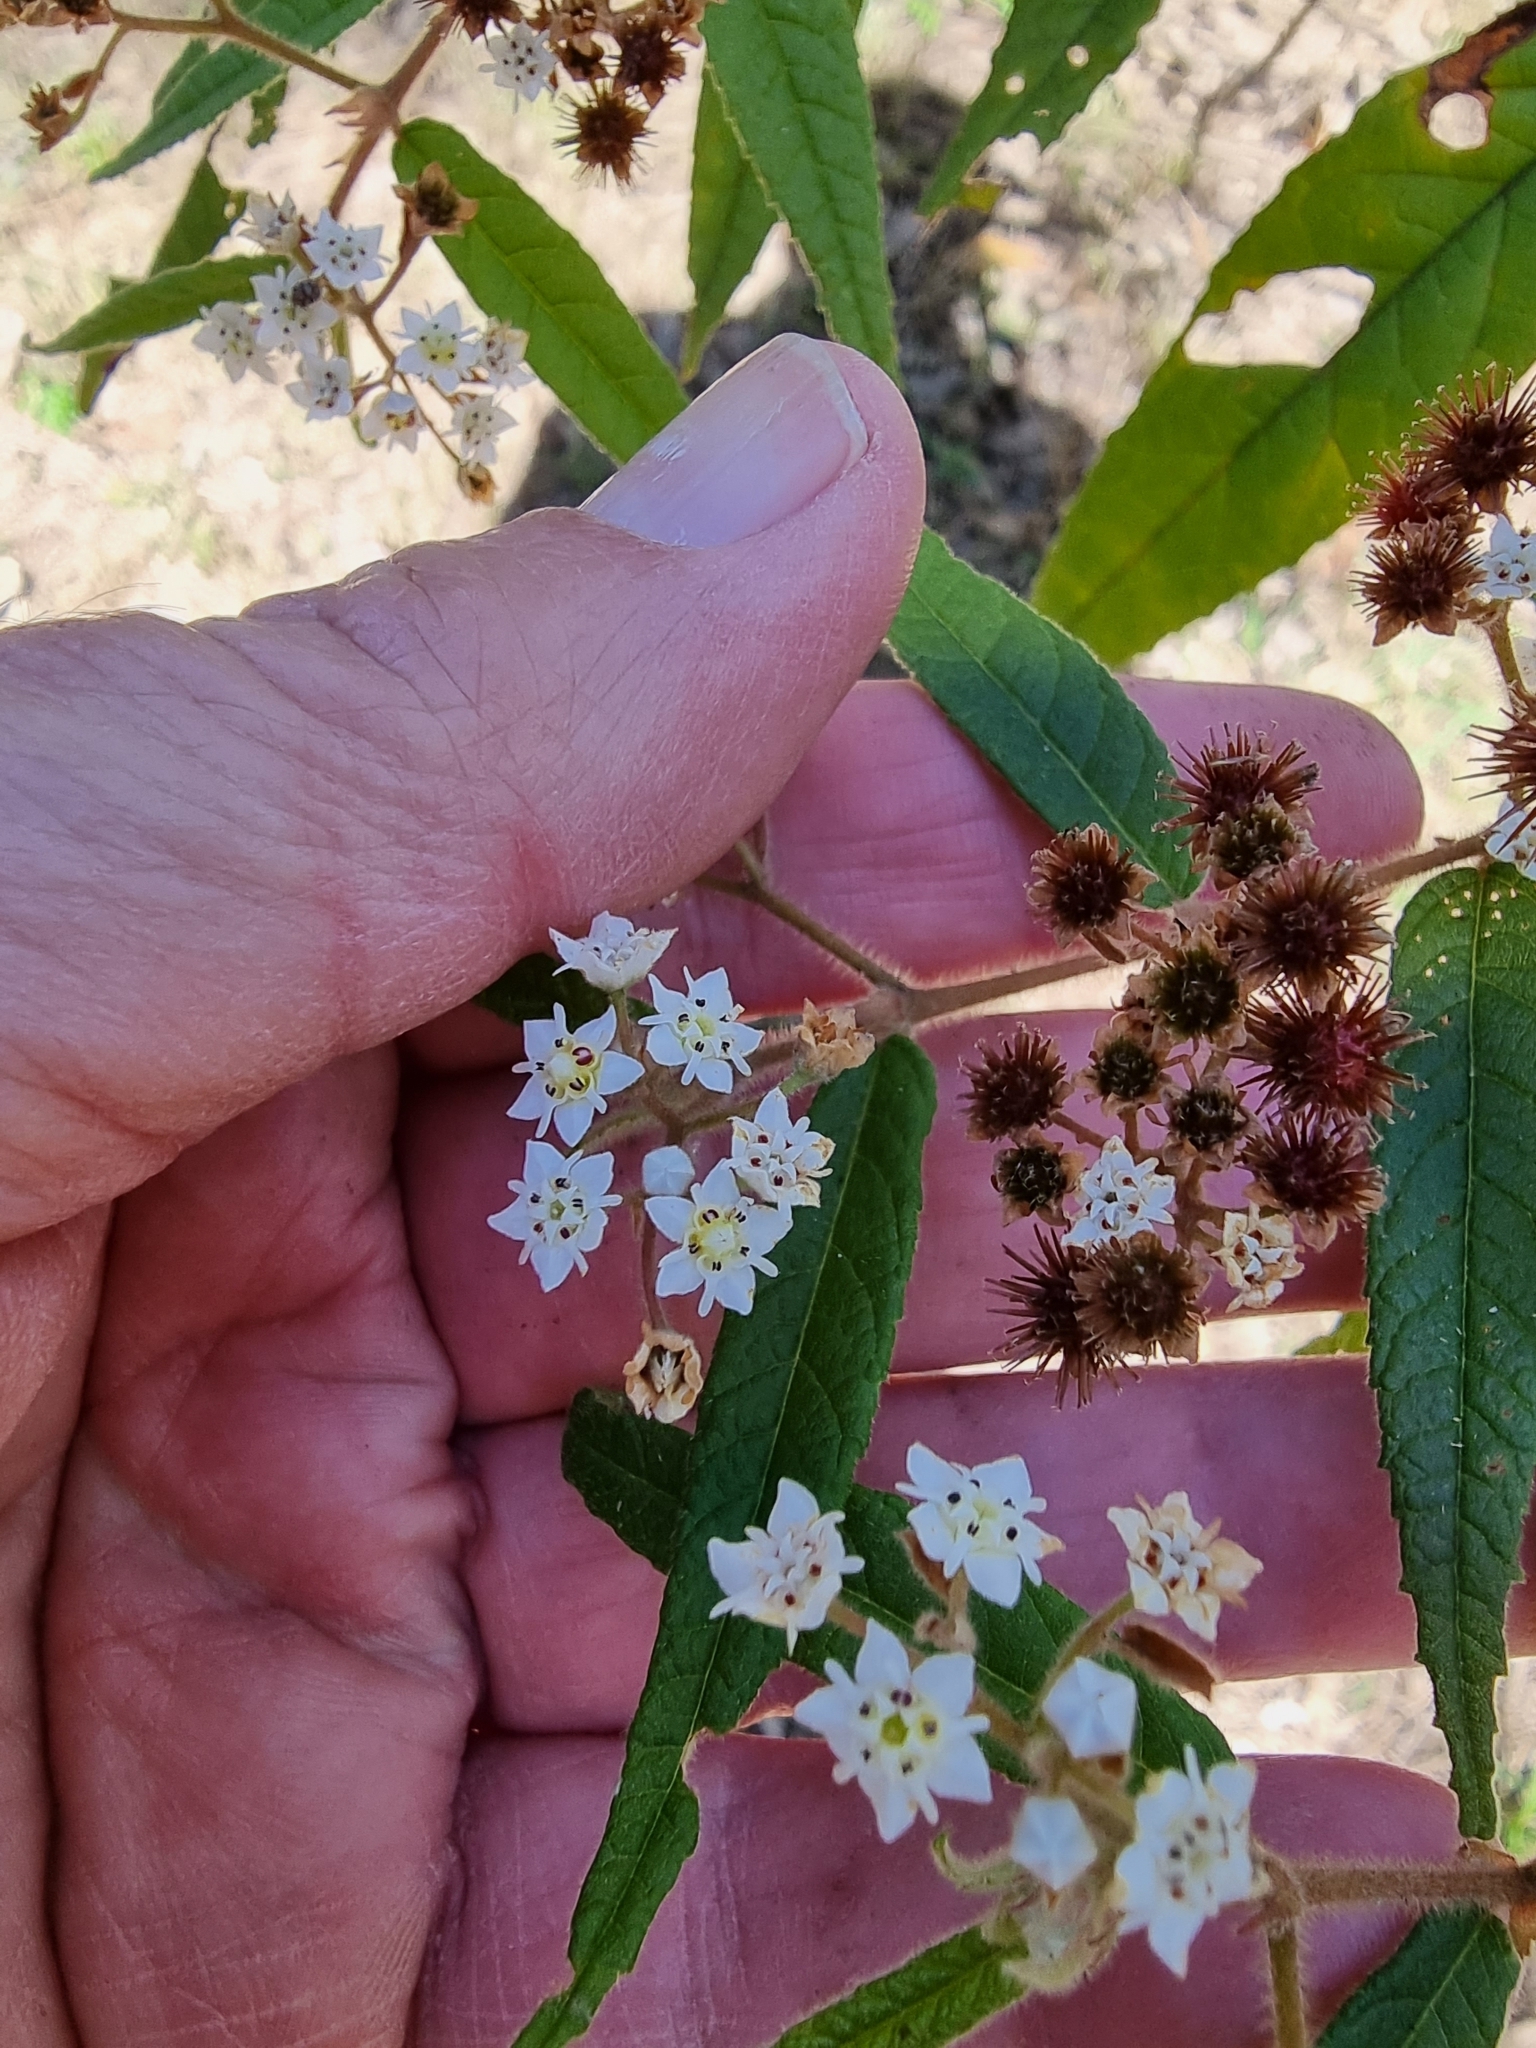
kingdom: Plantae
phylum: Tracheophyta
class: Magnoliopsida
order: Malvales
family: Malvaceae
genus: Commersonia
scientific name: Commersonia dasyphylla
